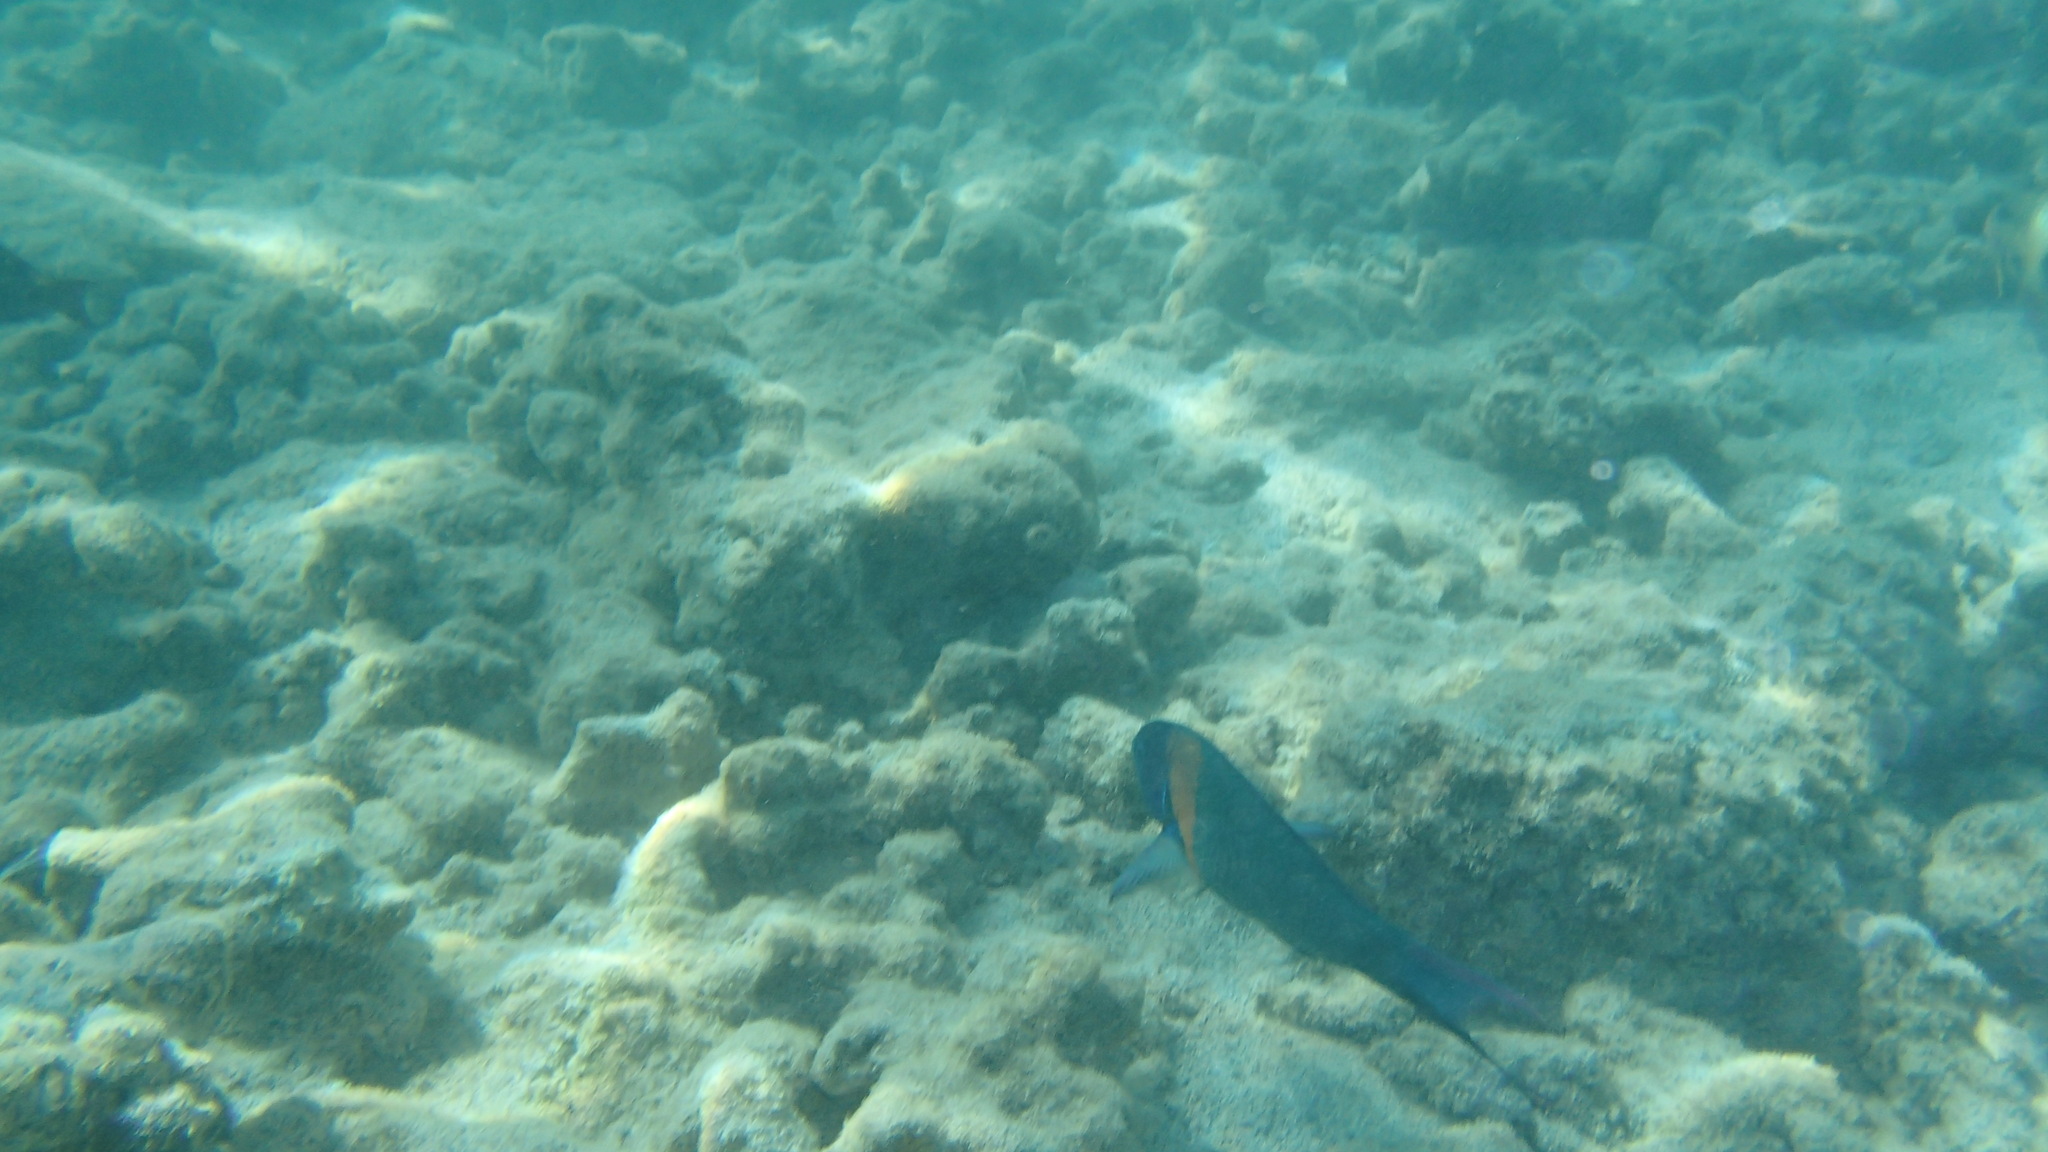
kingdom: Animalia
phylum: Chordata
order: Perciformes
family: Labridae
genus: Thalassoma
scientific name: Thalassoma duperrey
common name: Saddle wrasse
